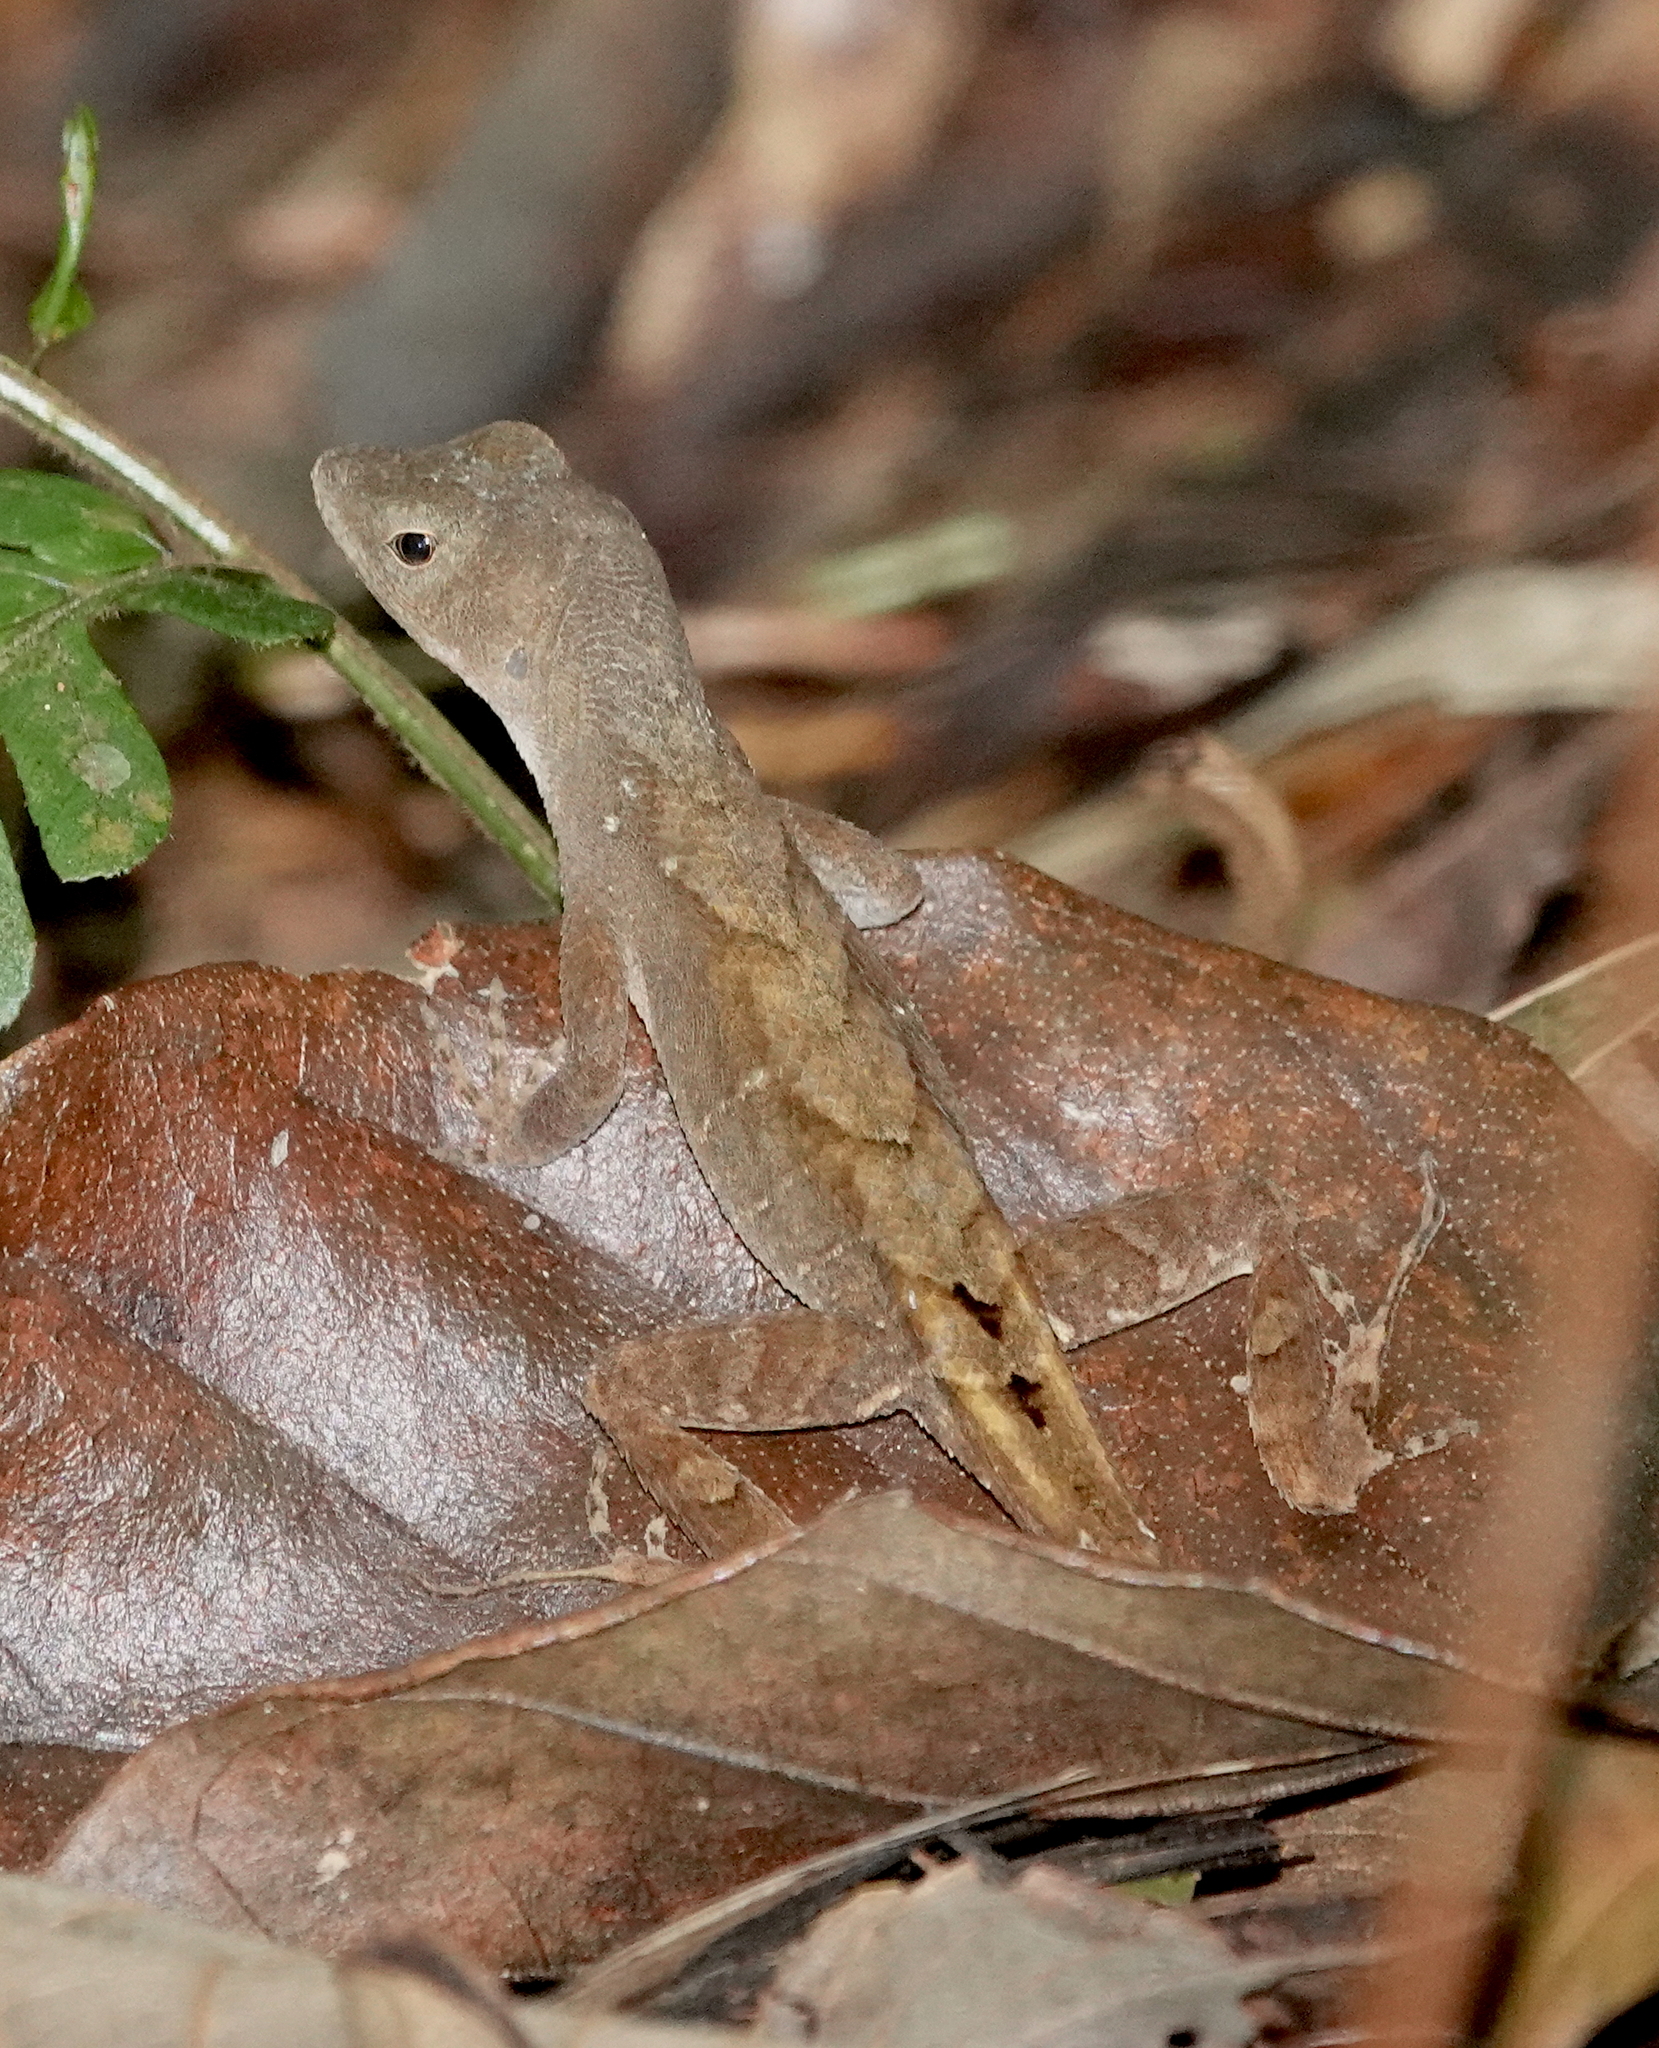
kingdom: Animalia
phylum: Chordata
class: Squamata
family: Dactyloidae
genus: Anolis
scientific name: Anolis wilsoni
